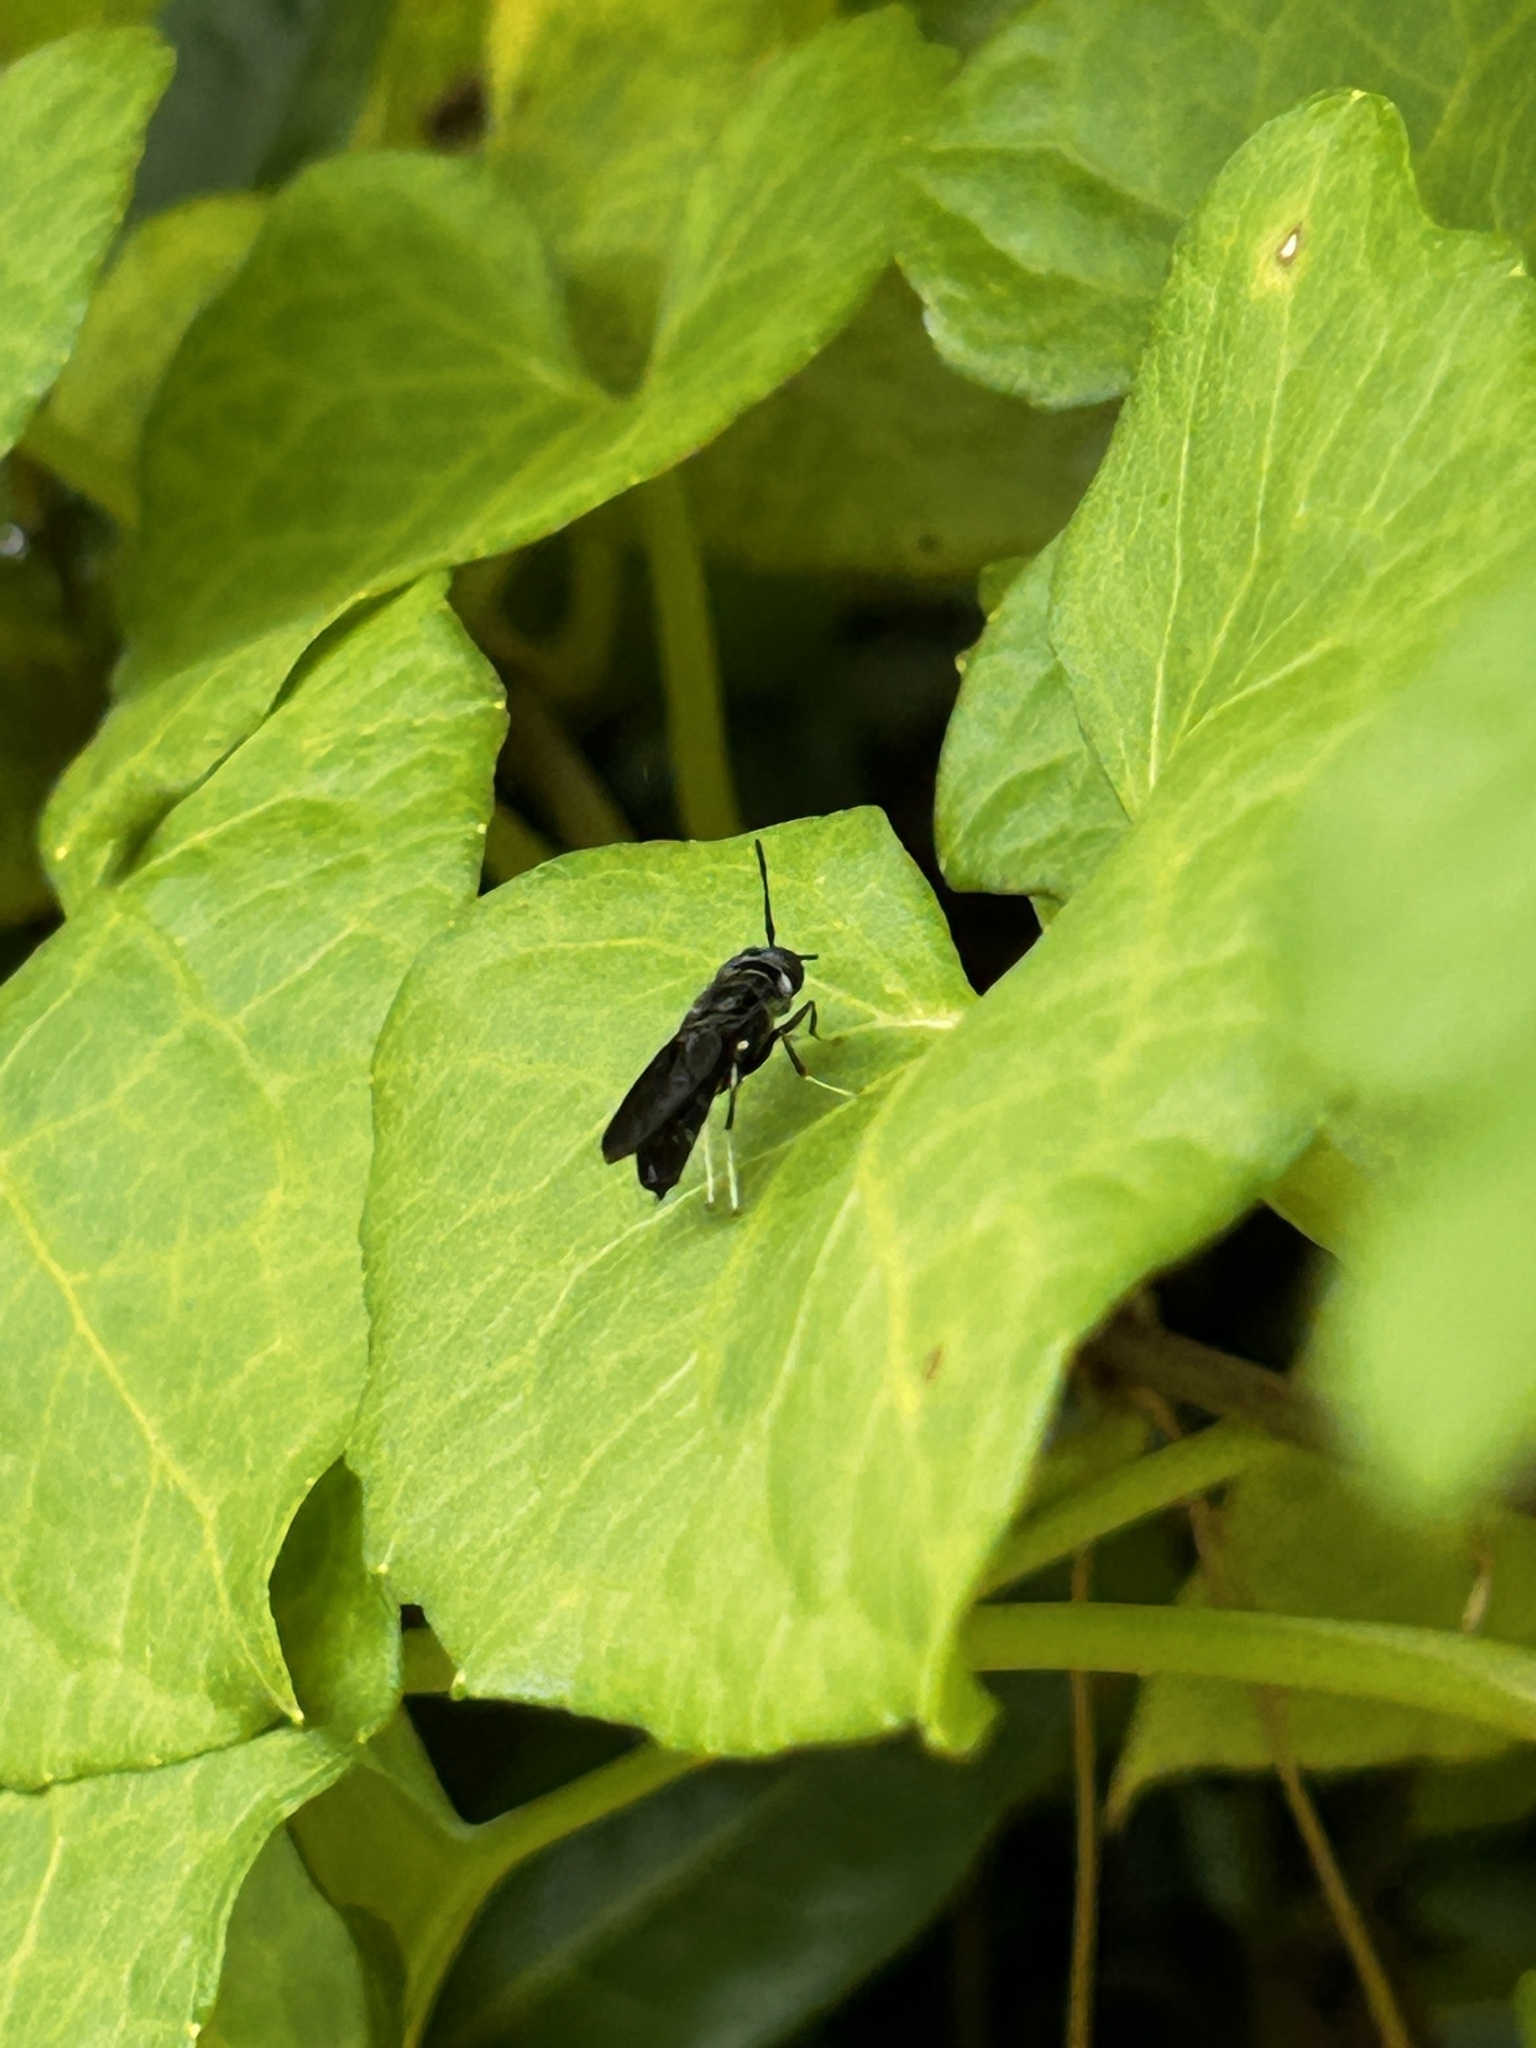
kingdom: Animalia
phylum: Arthropoda
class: Insecta
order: Diptera
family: Stratiomyidae
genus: Hermetia
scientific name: Hermetia illucens
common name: Black soldier fly
